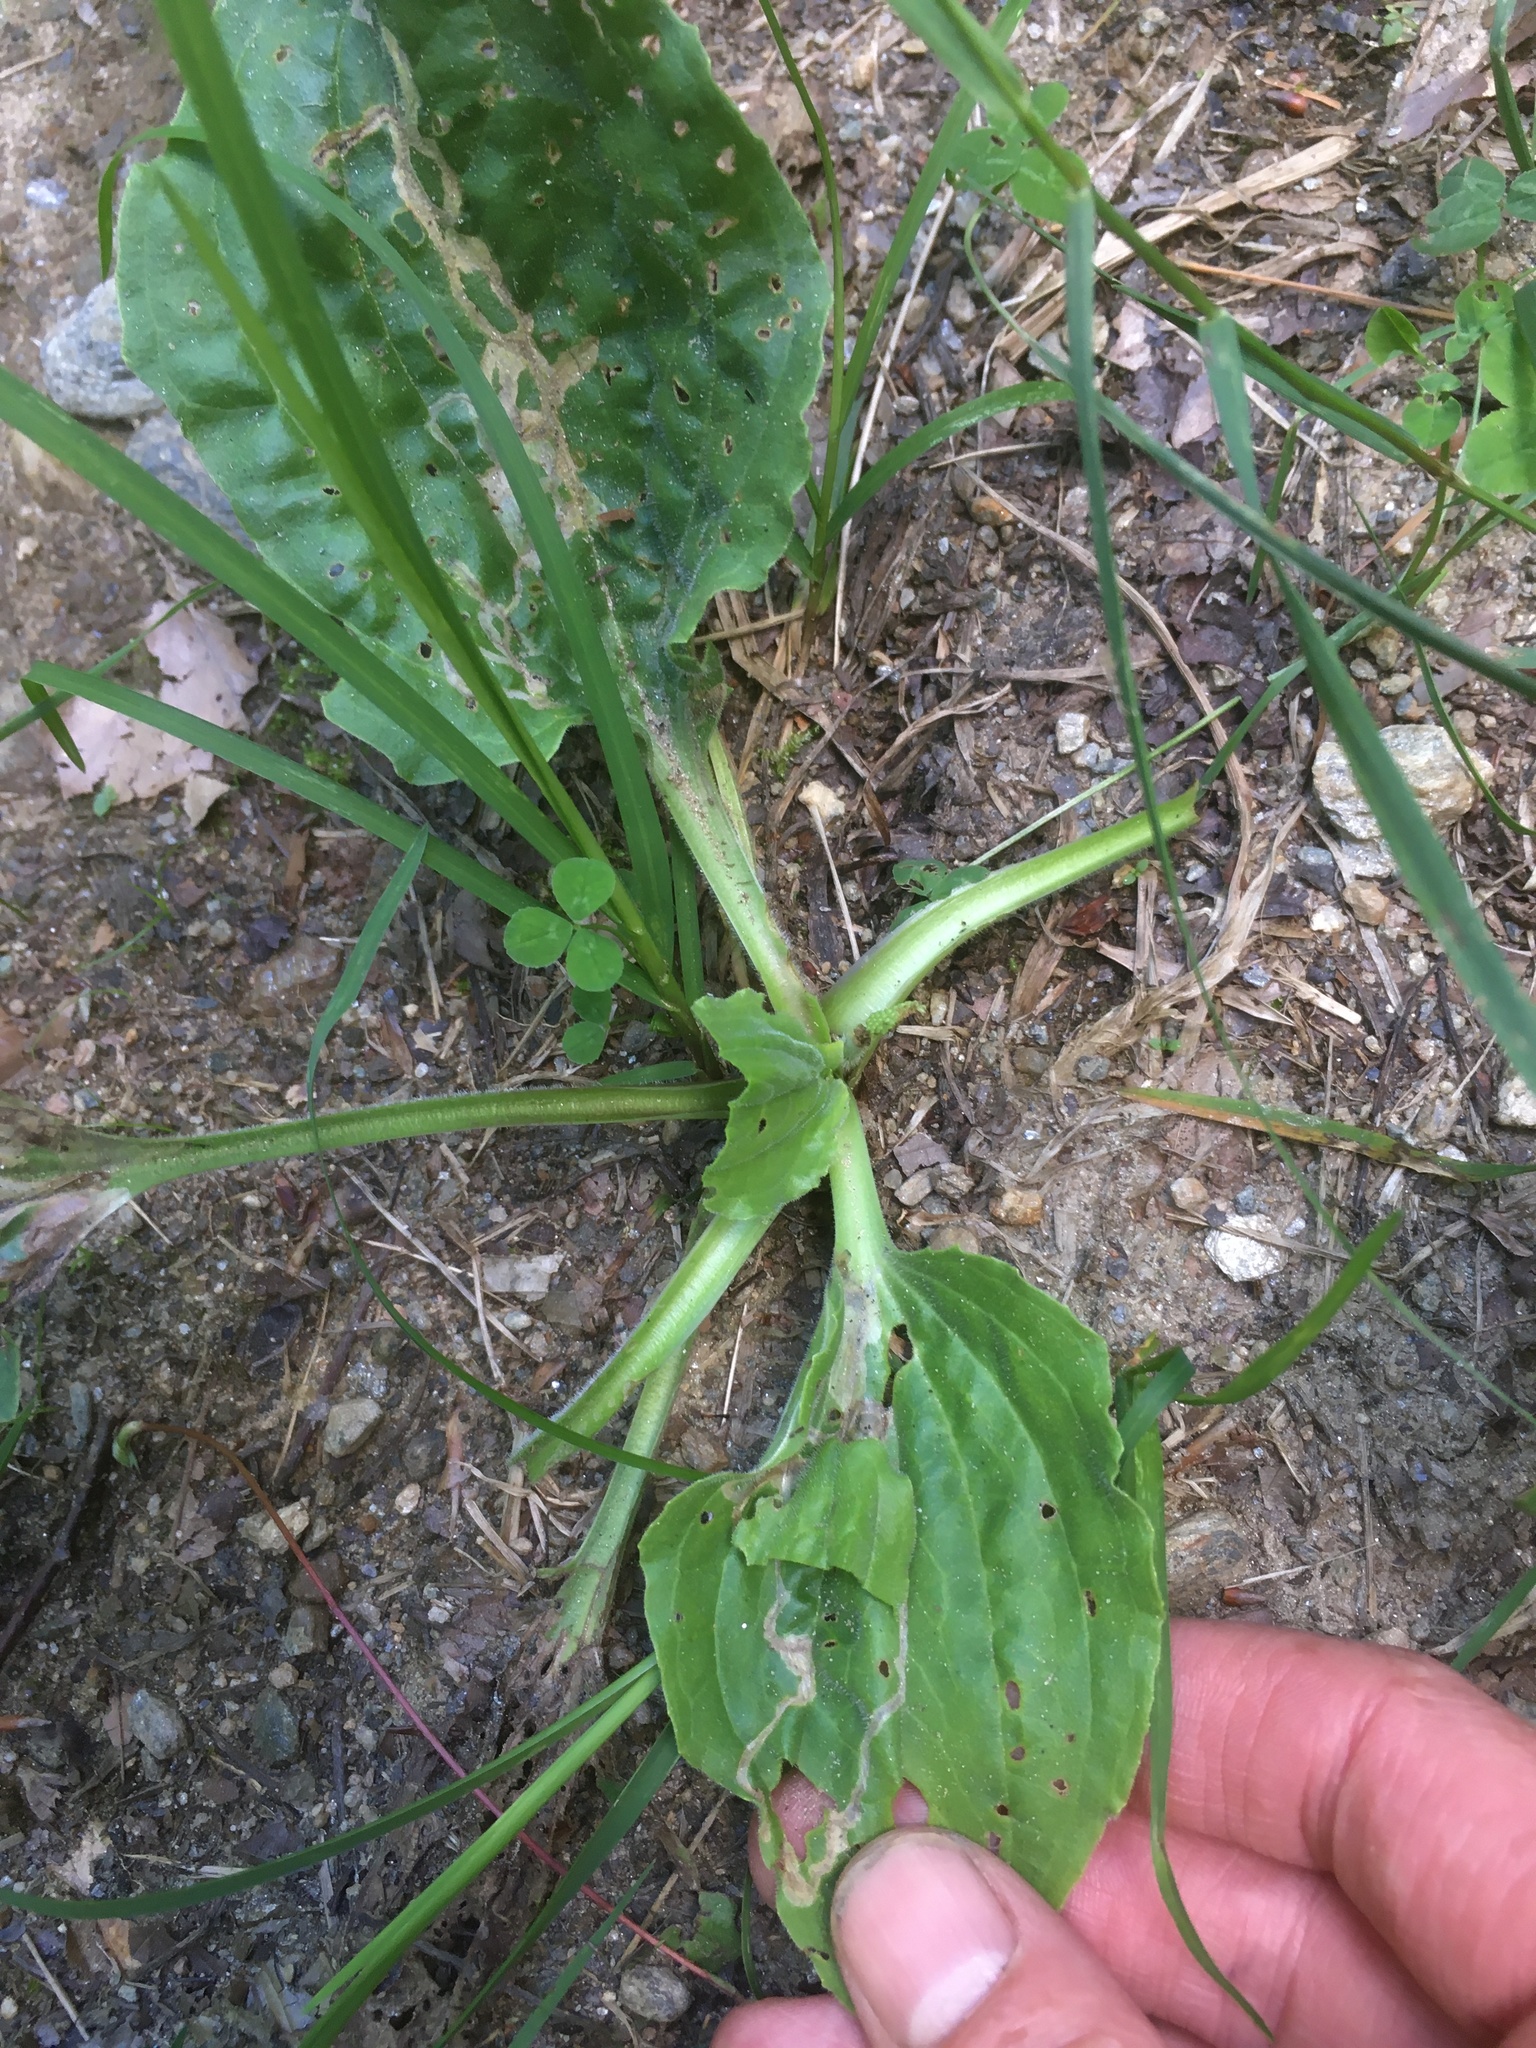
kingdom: Plantae
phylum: Tracheophyta
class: Magnoliopsida
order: Lamiales
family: Plantaginaceae
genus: Plantago
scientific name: Plantago major
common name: Common plantain
